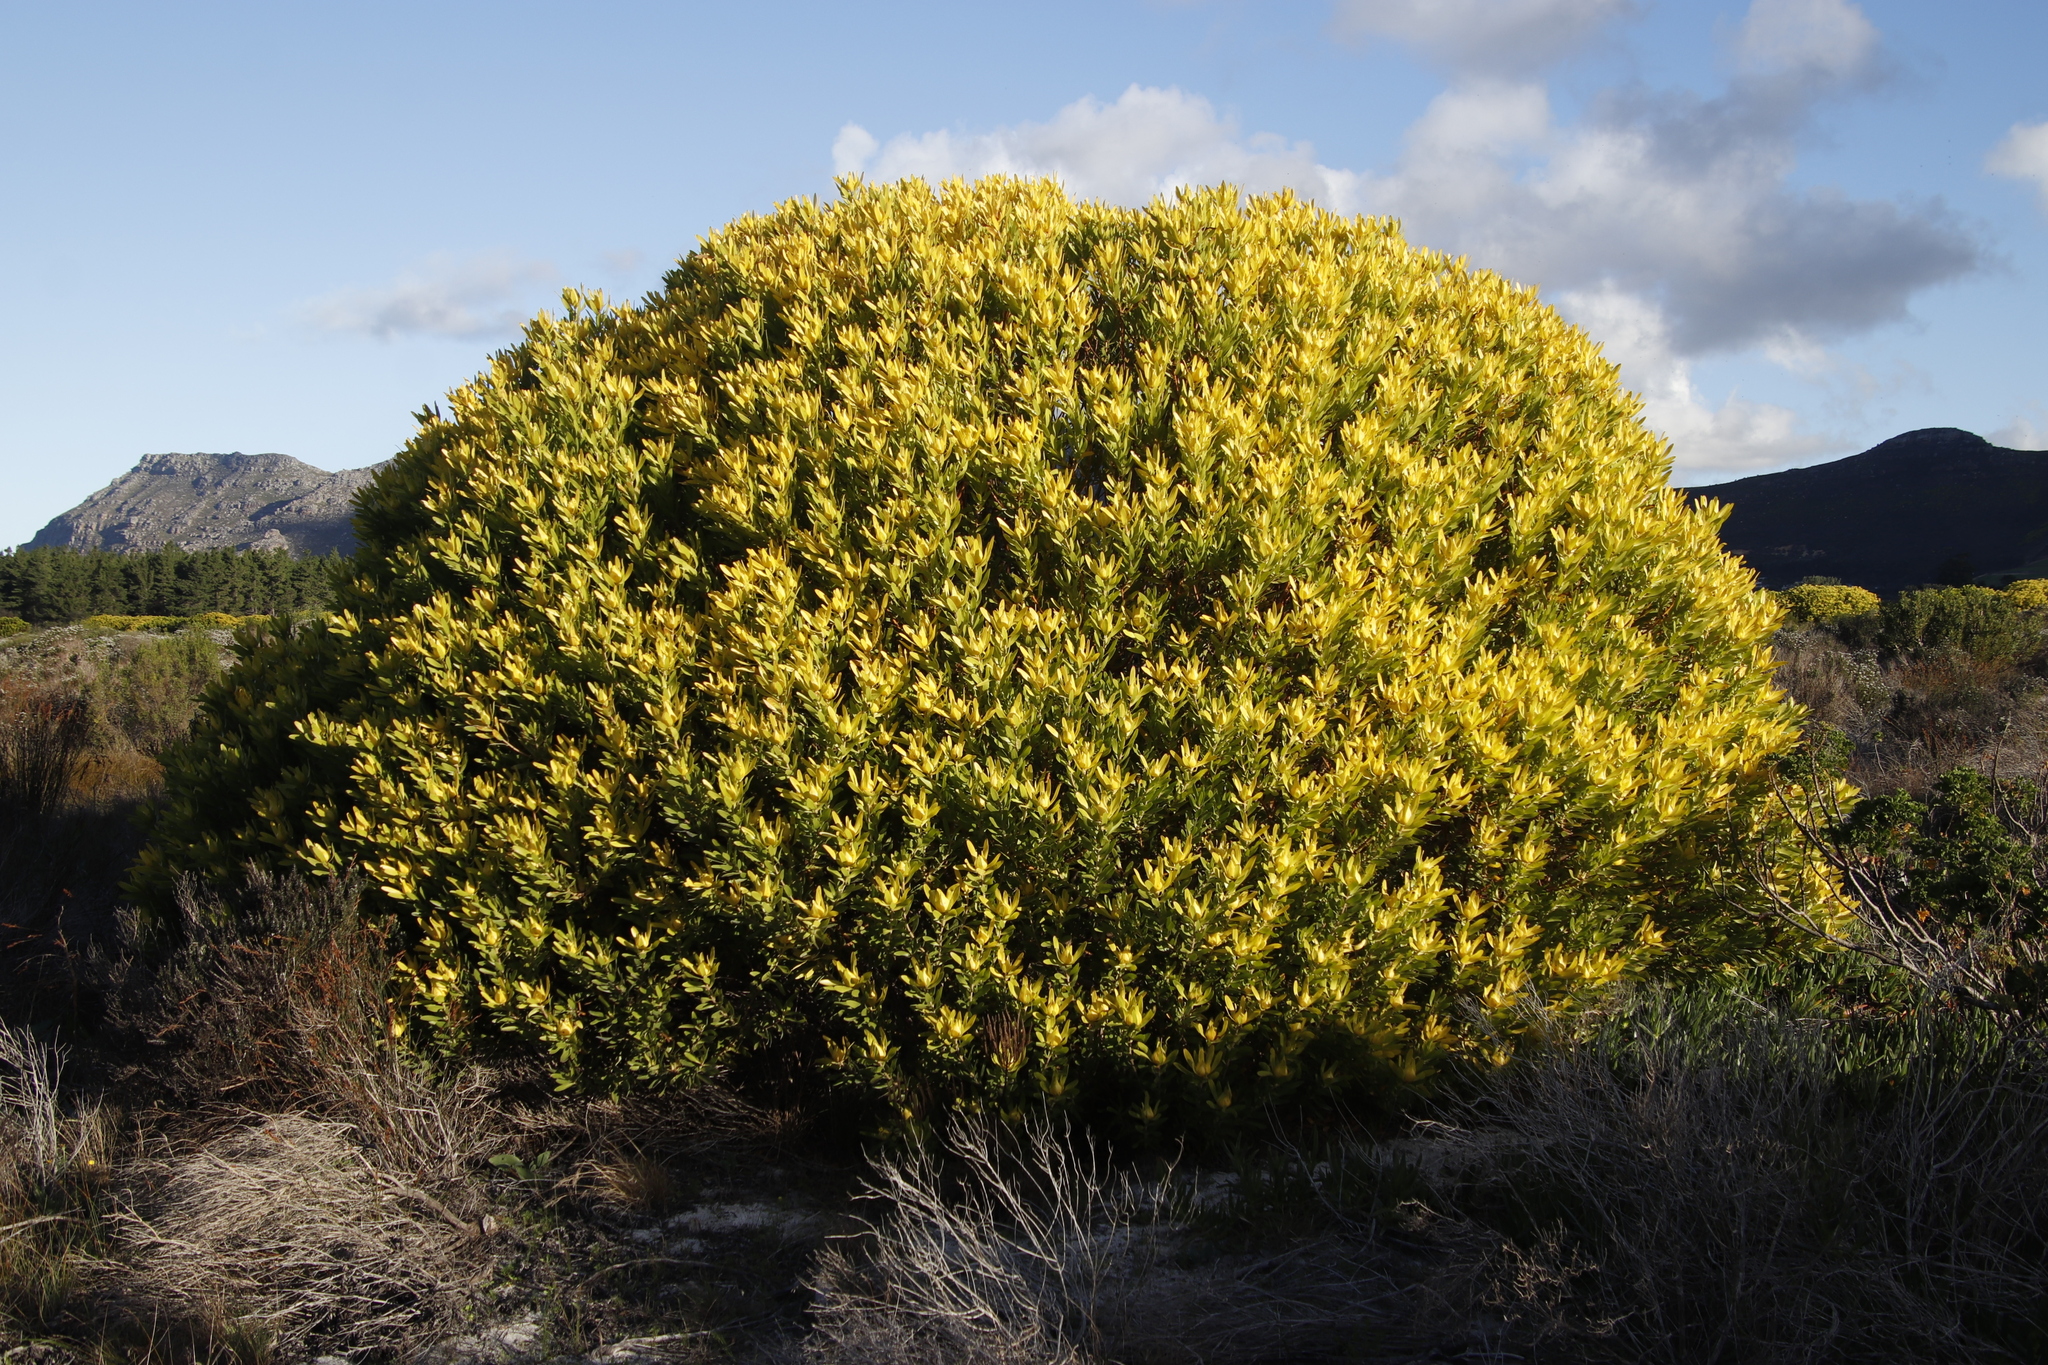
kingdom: Plantae
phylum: Tracheophyta
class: Magnoliopsida
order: Proteales
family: Proteaceae
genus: Leucadendron
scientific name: Leucadendron laureolum
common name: Golden sunshinebush
